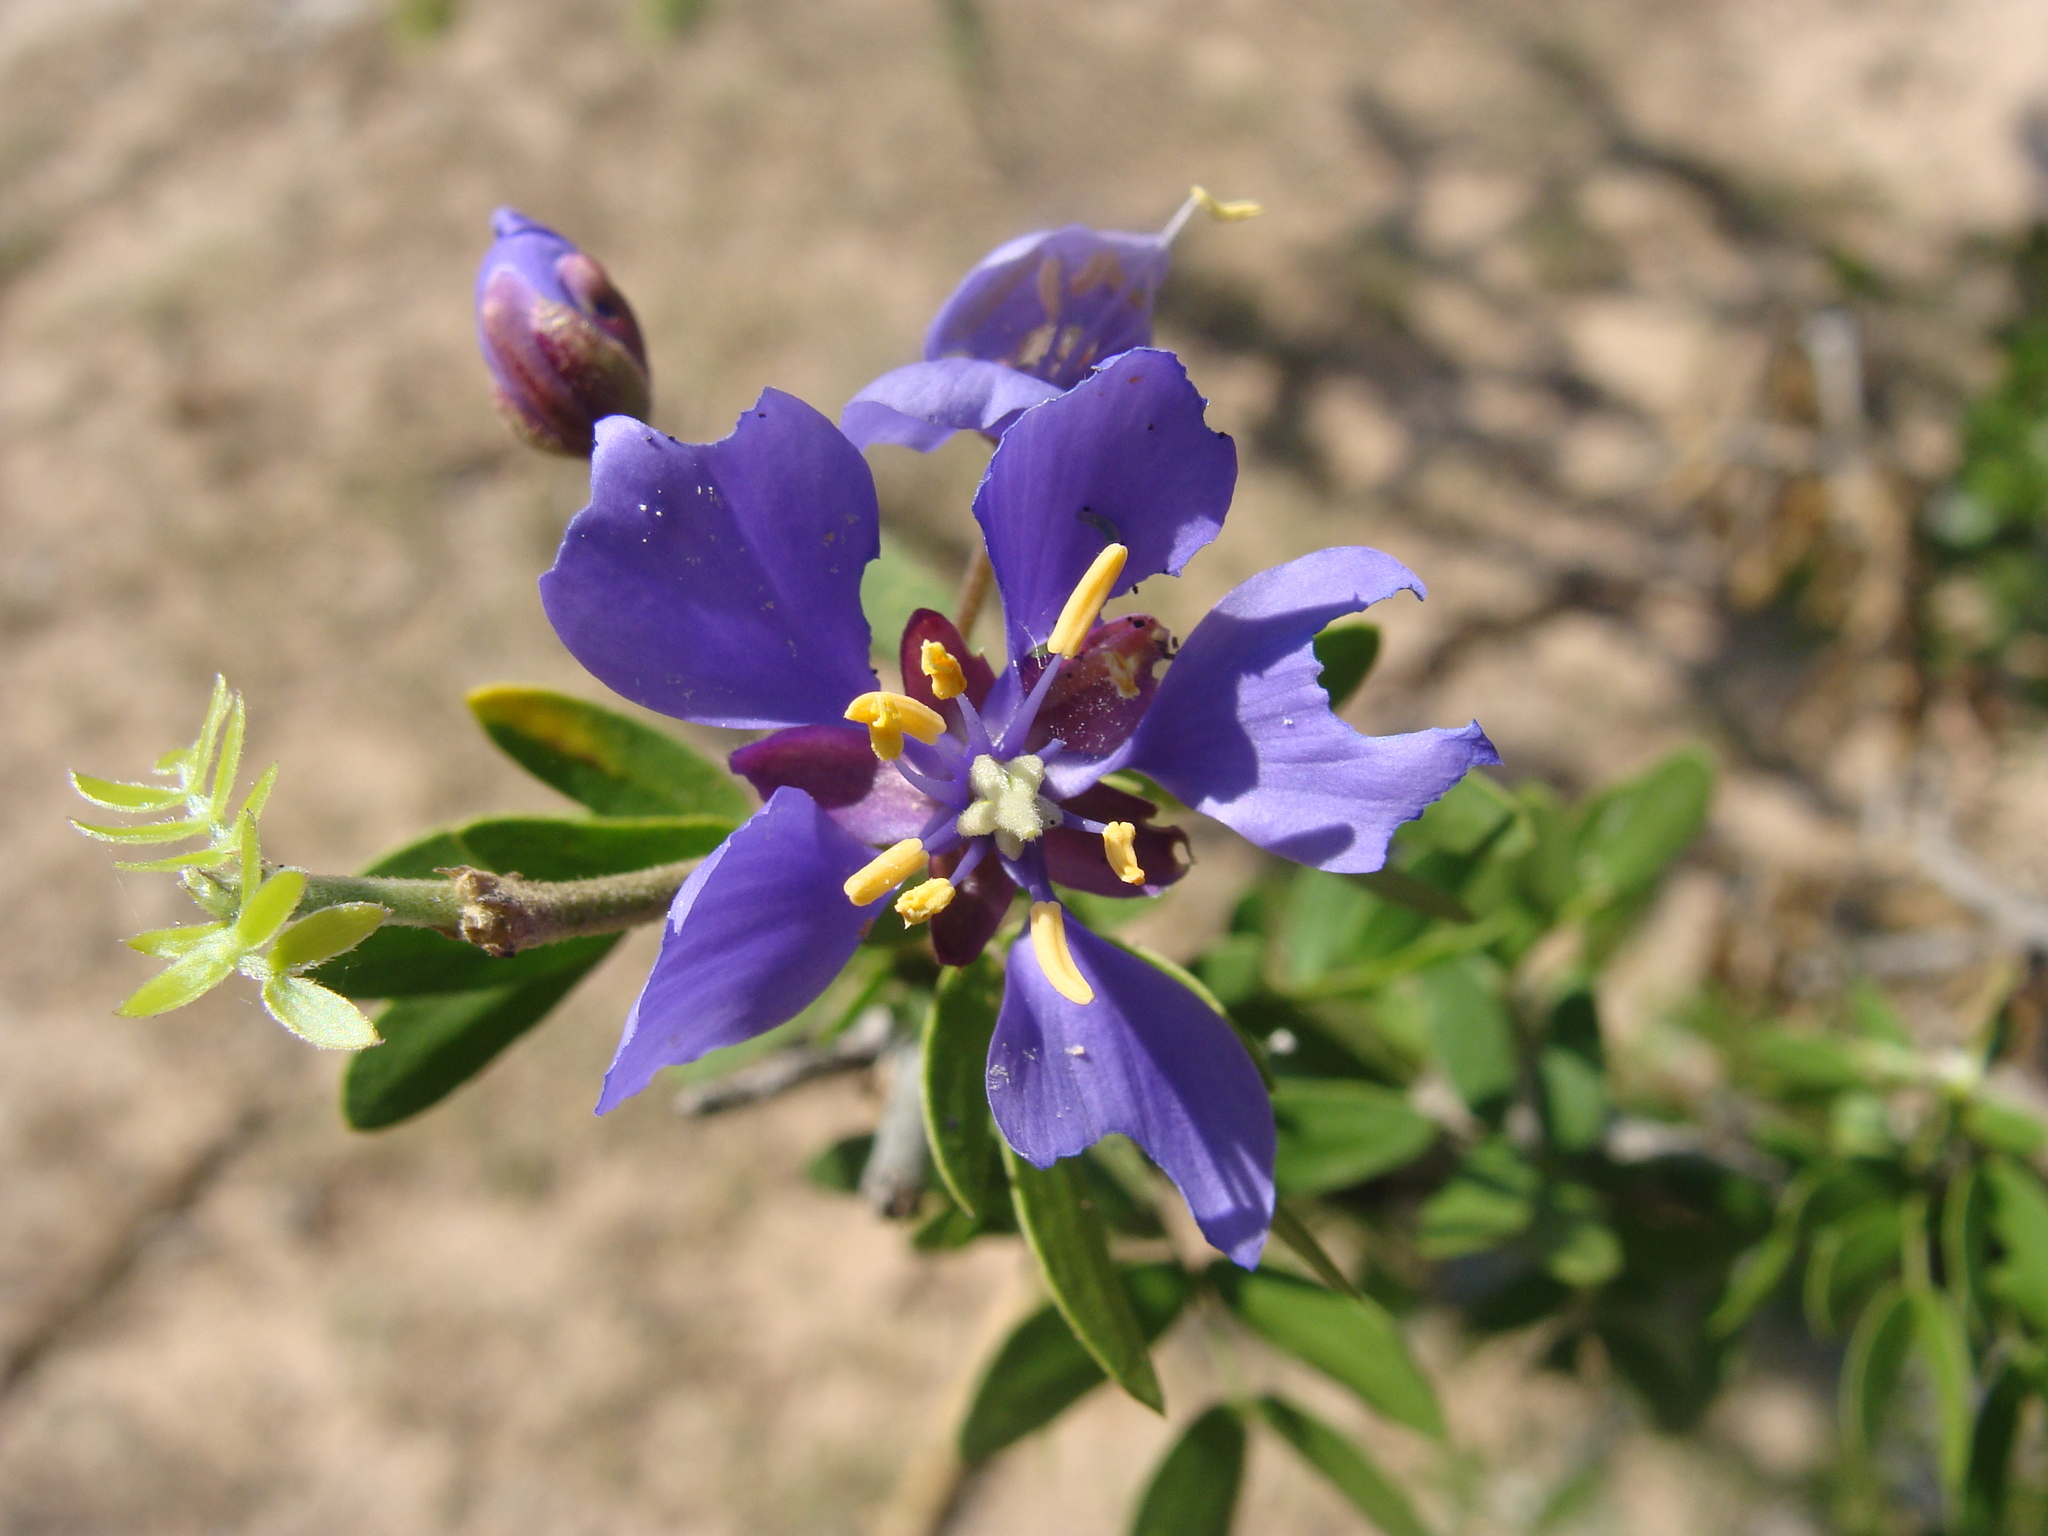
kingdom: Plantae
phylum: Tracheophyta
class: Magnoliopsida
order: Zygophyllales
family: Zygophyllaceae
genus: Guaiacum
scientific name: Guaiacum coulteri
